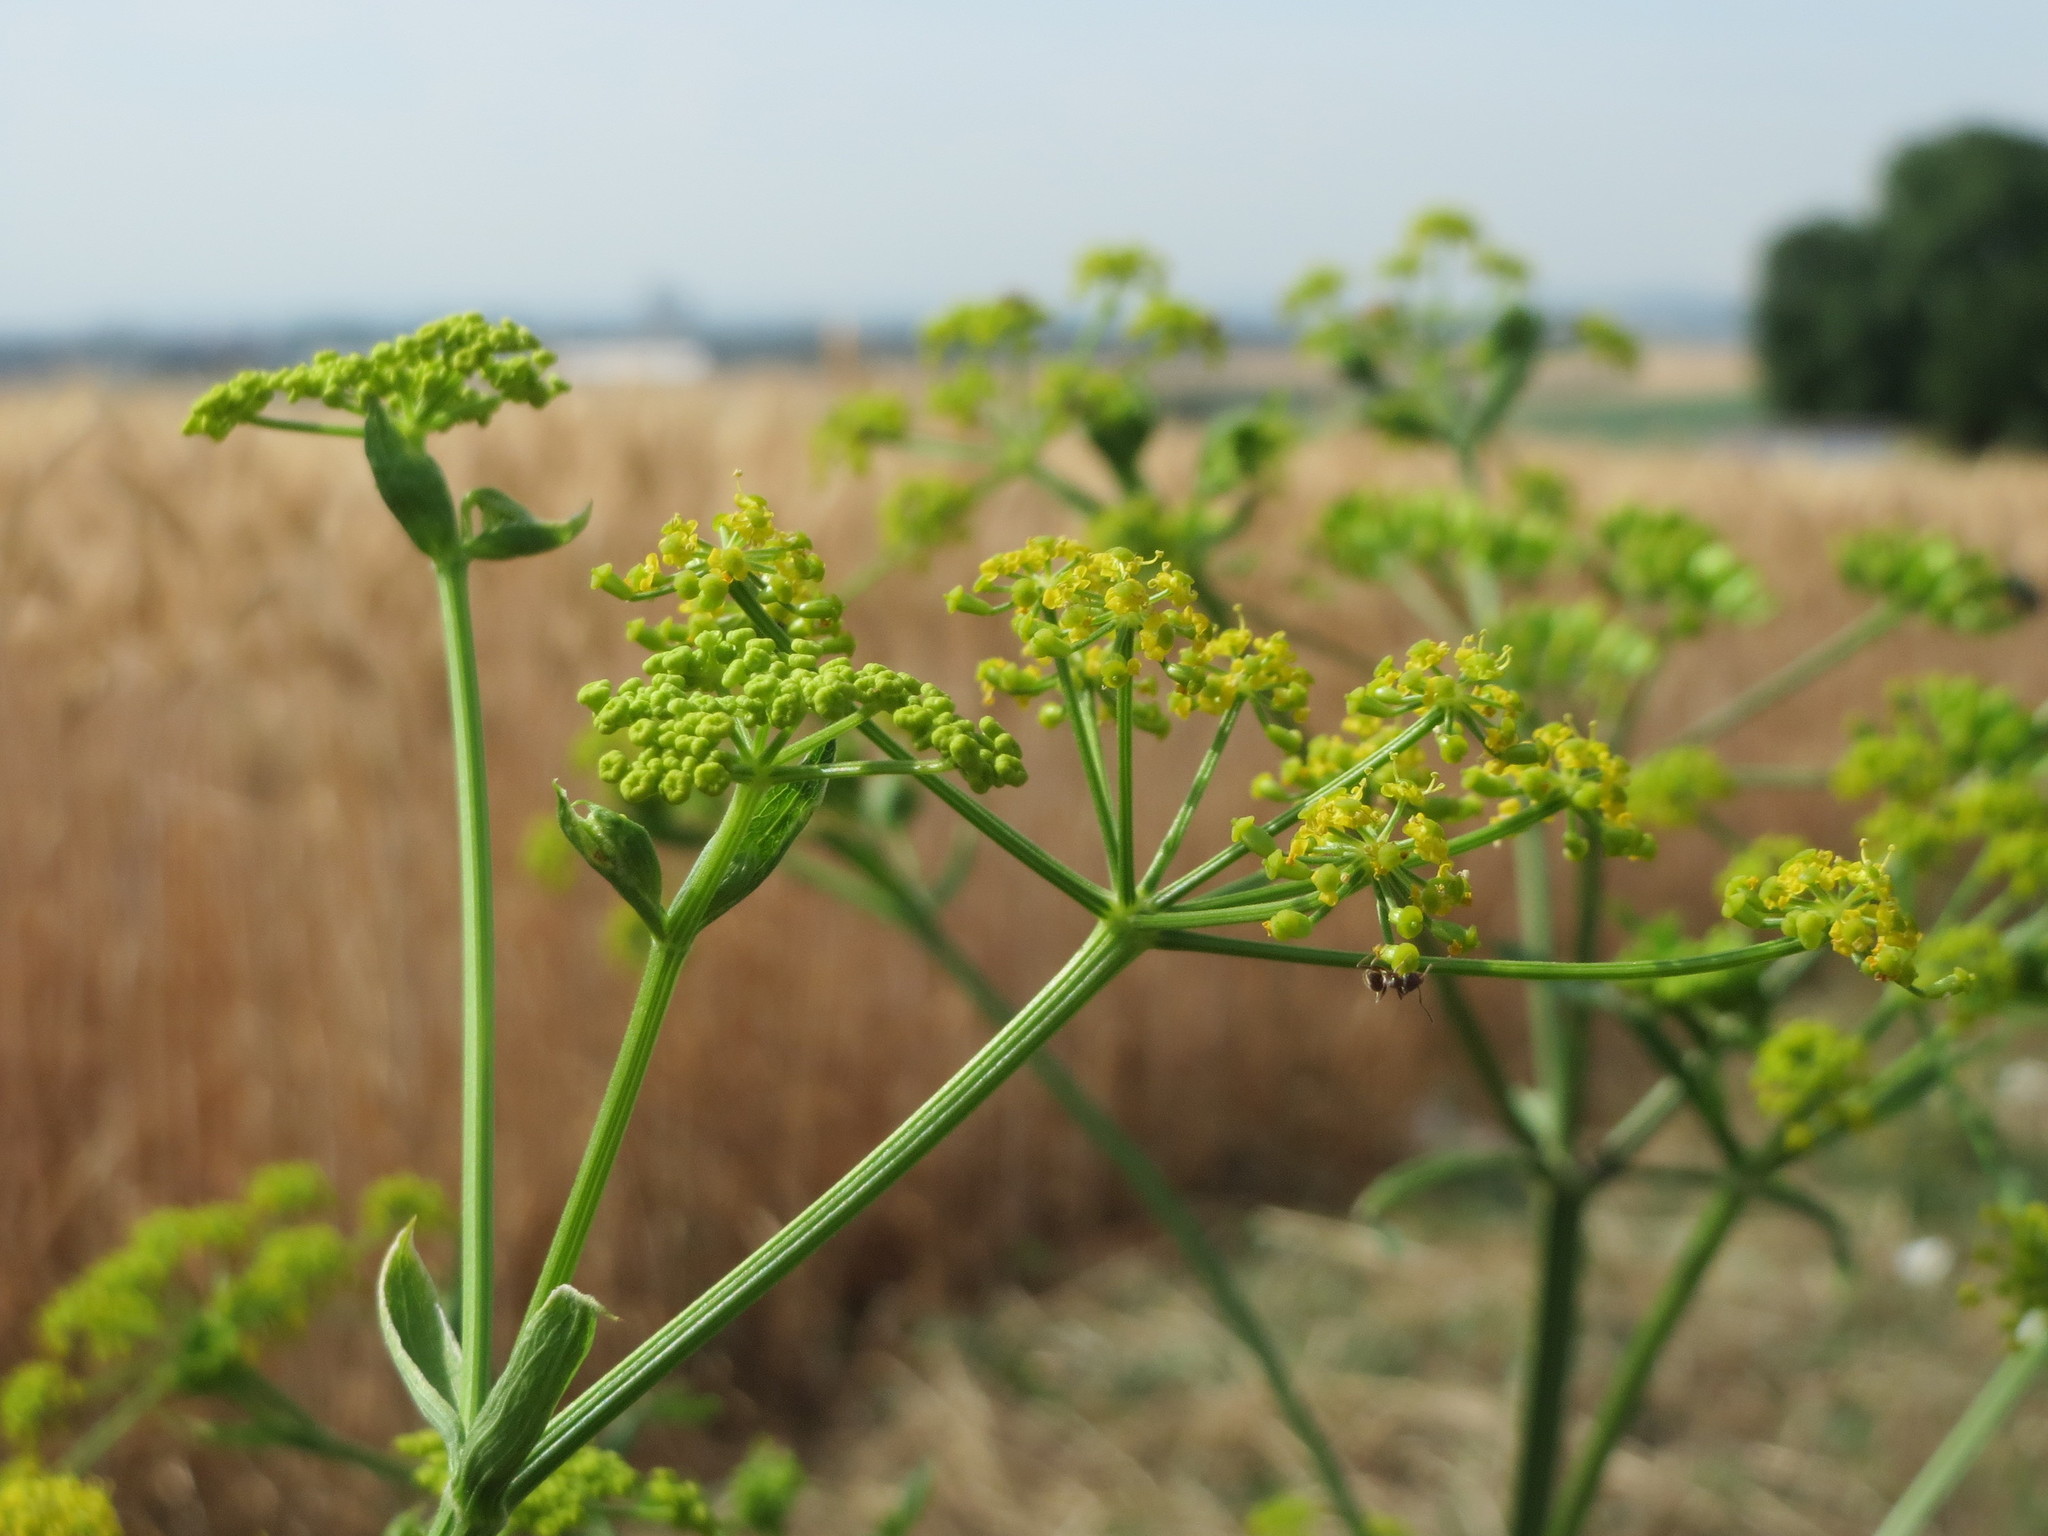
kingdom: Plantae
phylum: Tracheophyta
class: Magnoliopsida
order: Apiales
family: Apiaceae
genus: Pastinaca
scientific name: Pastinaca sativa
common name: Wild parsnip
